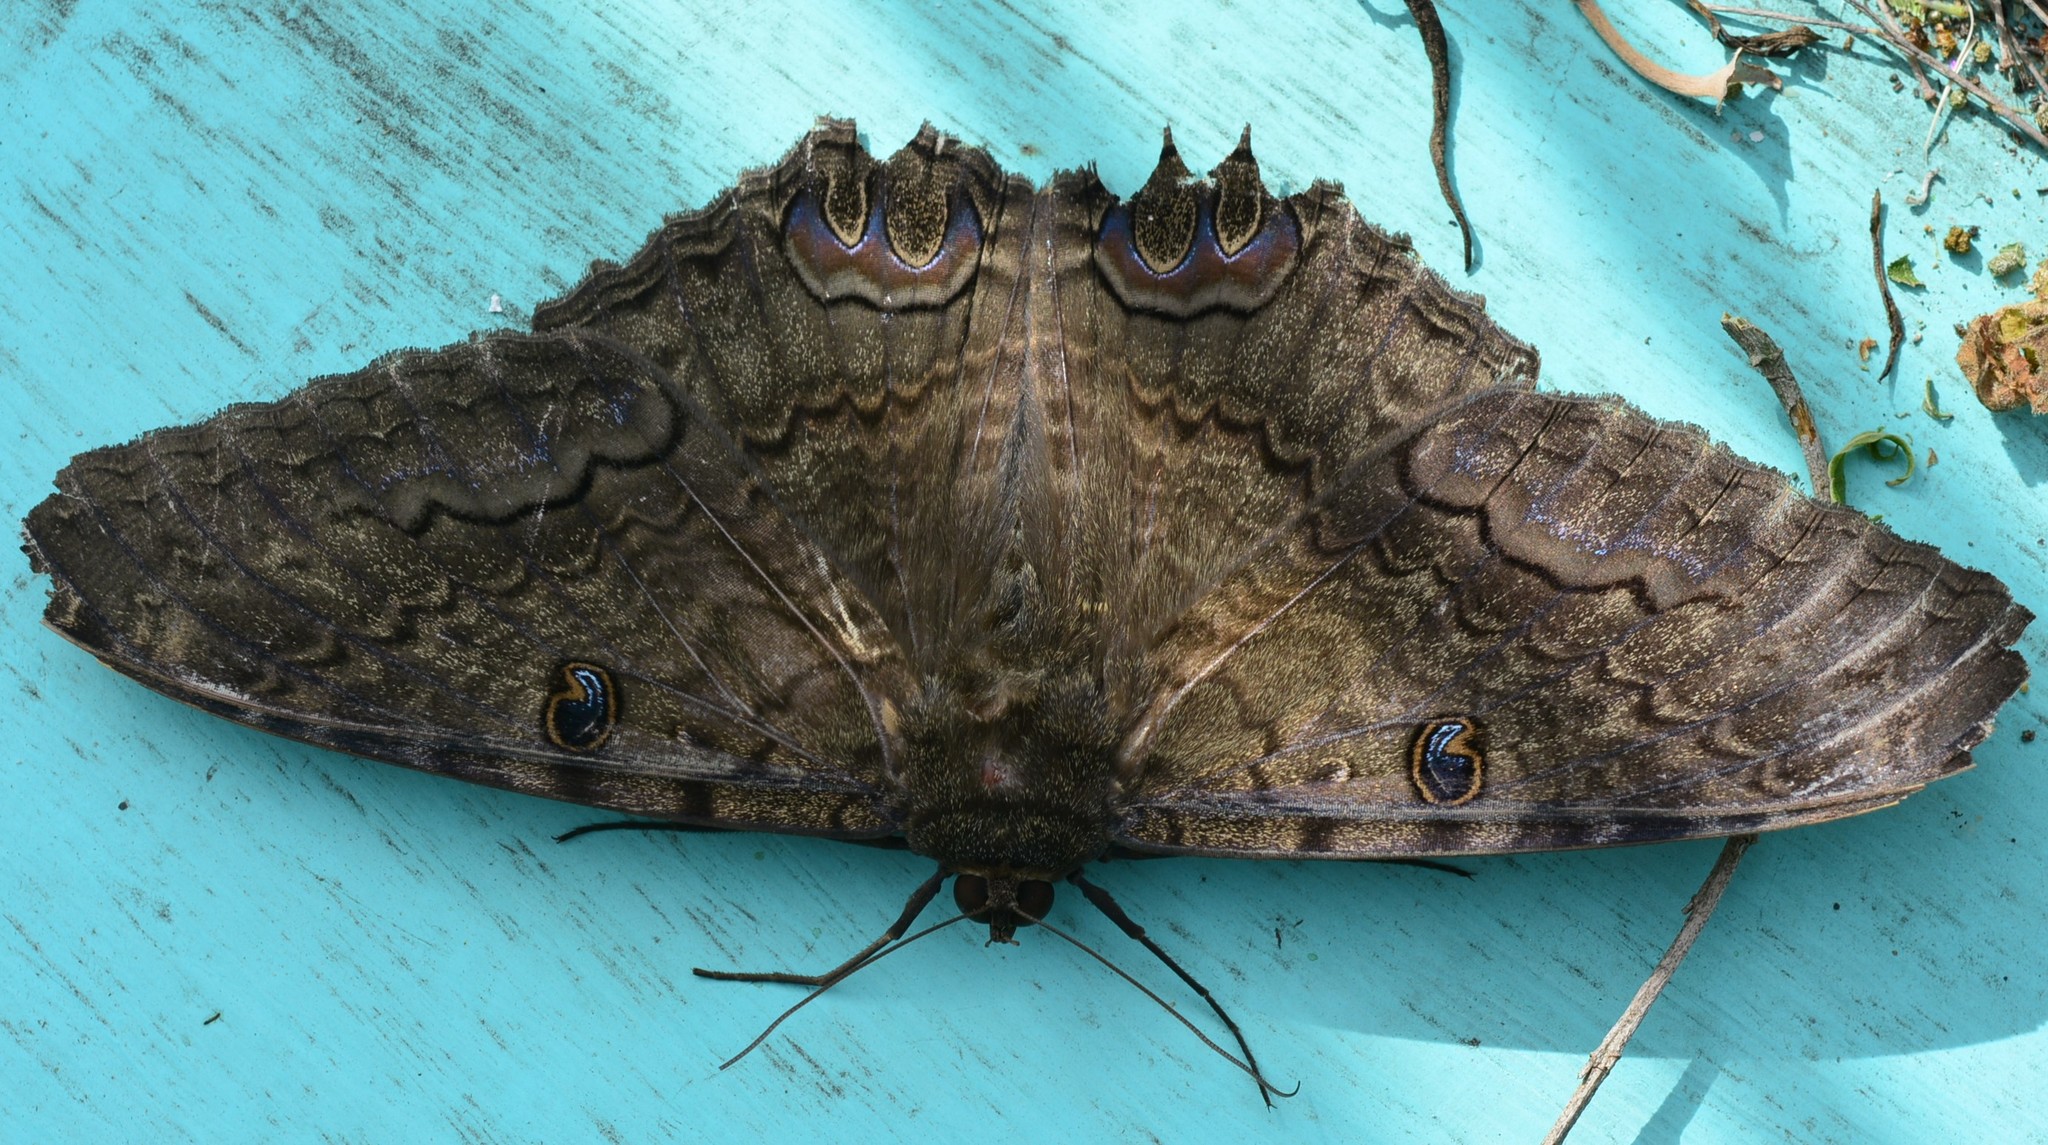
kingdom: Animalia
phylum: Arthropoda
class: Insecta
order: Lepidoptera
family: Erebidae
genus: Ascalapha
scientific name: Ascalapha odorata
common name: Black witch
